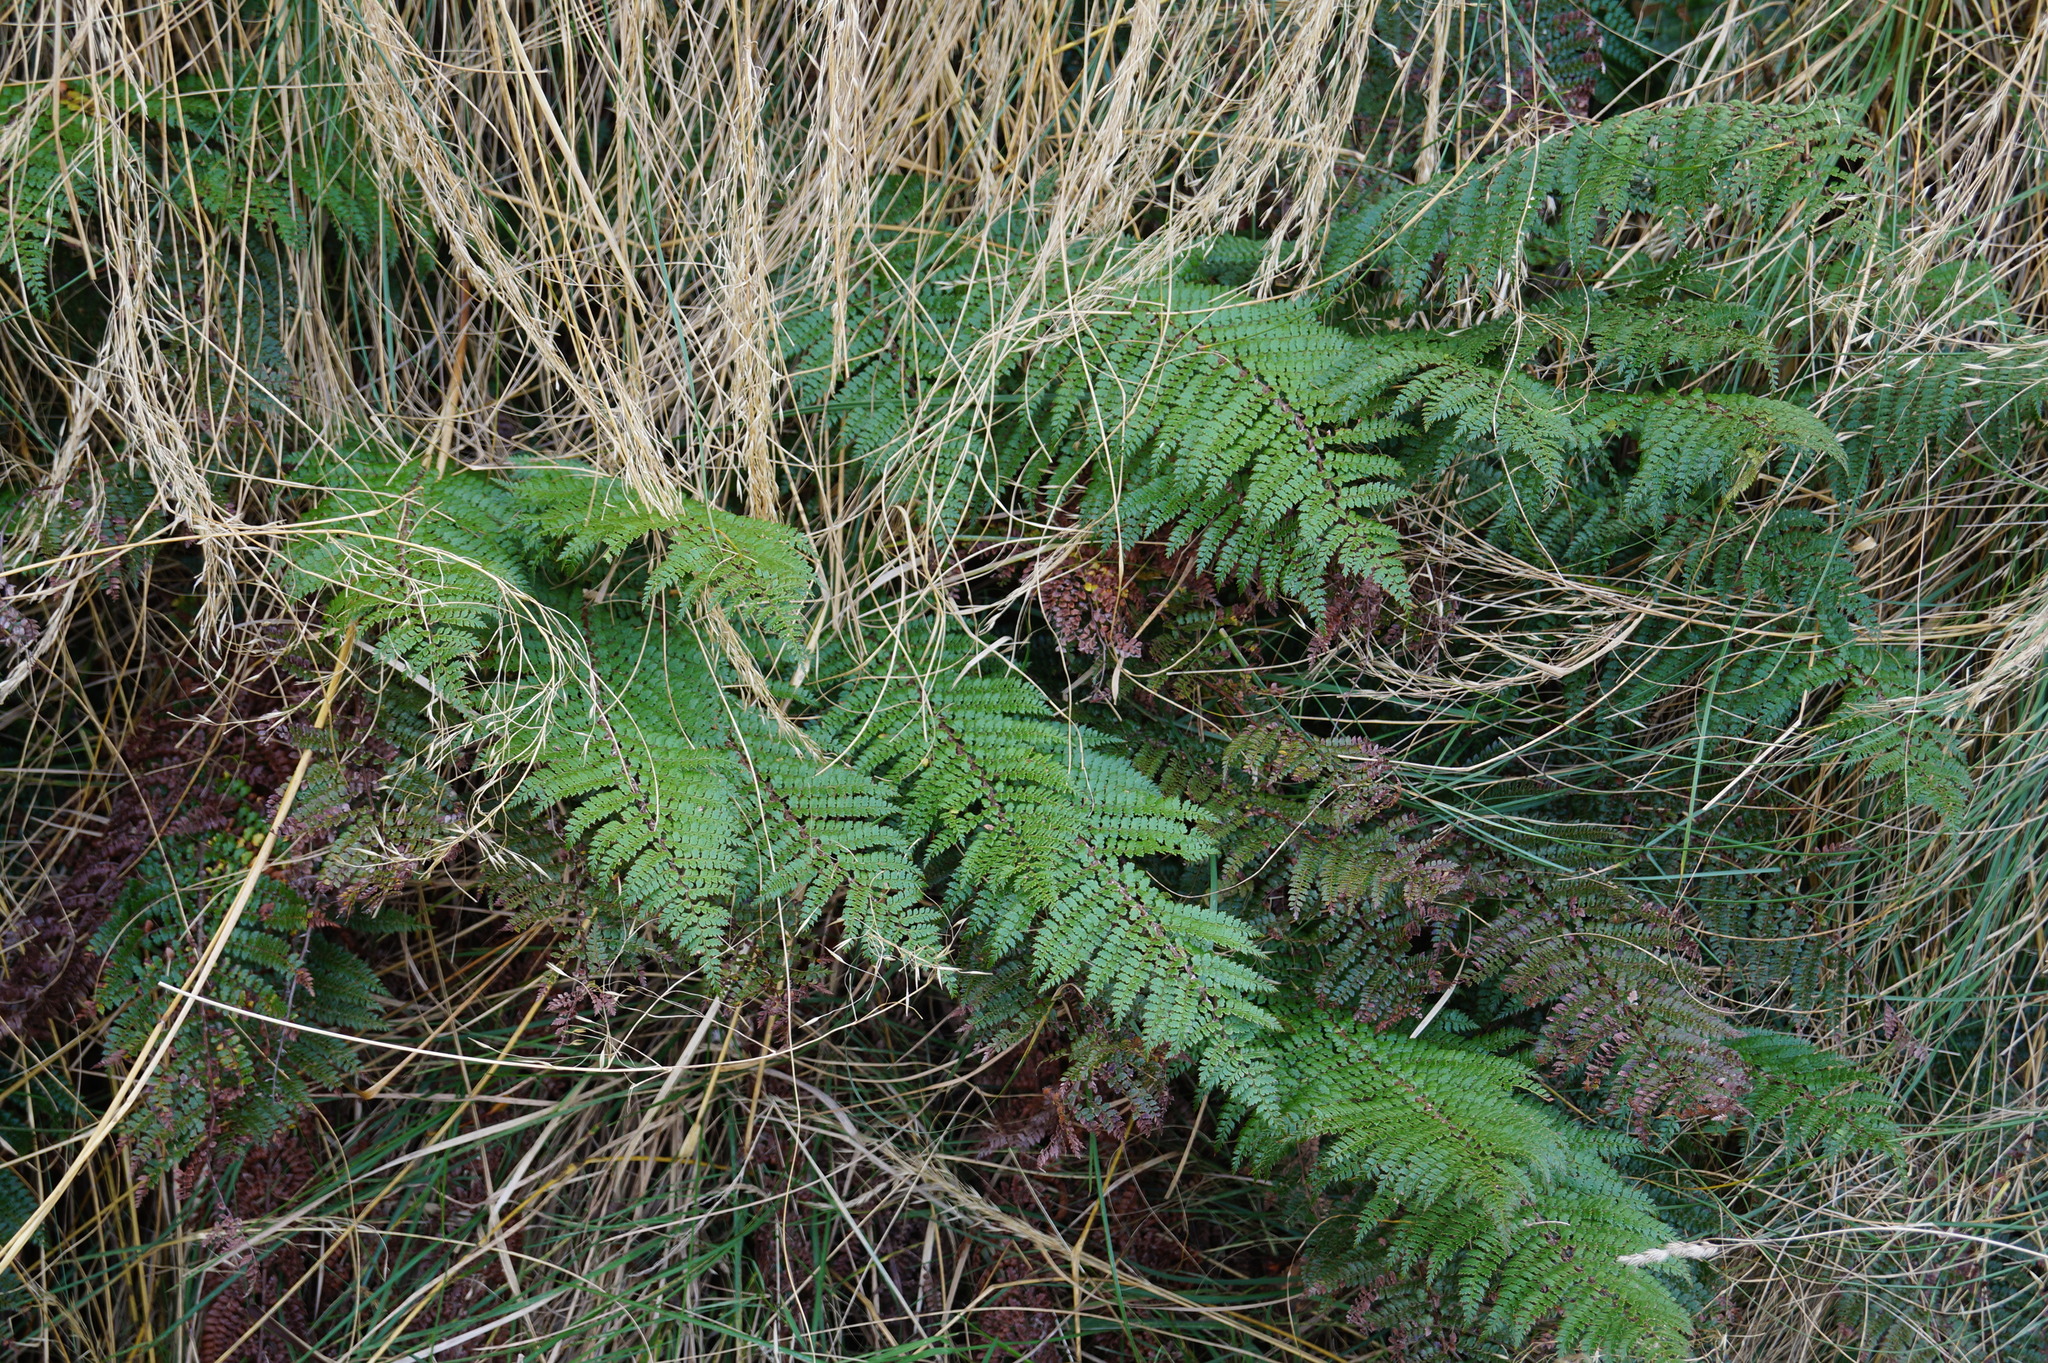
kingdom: Plantae
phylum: Tracheophyta
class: Polypodiopsida
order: Polypodiales
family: Dryopteridaceae
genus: Polystichum
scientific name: Polystichum vestitum
